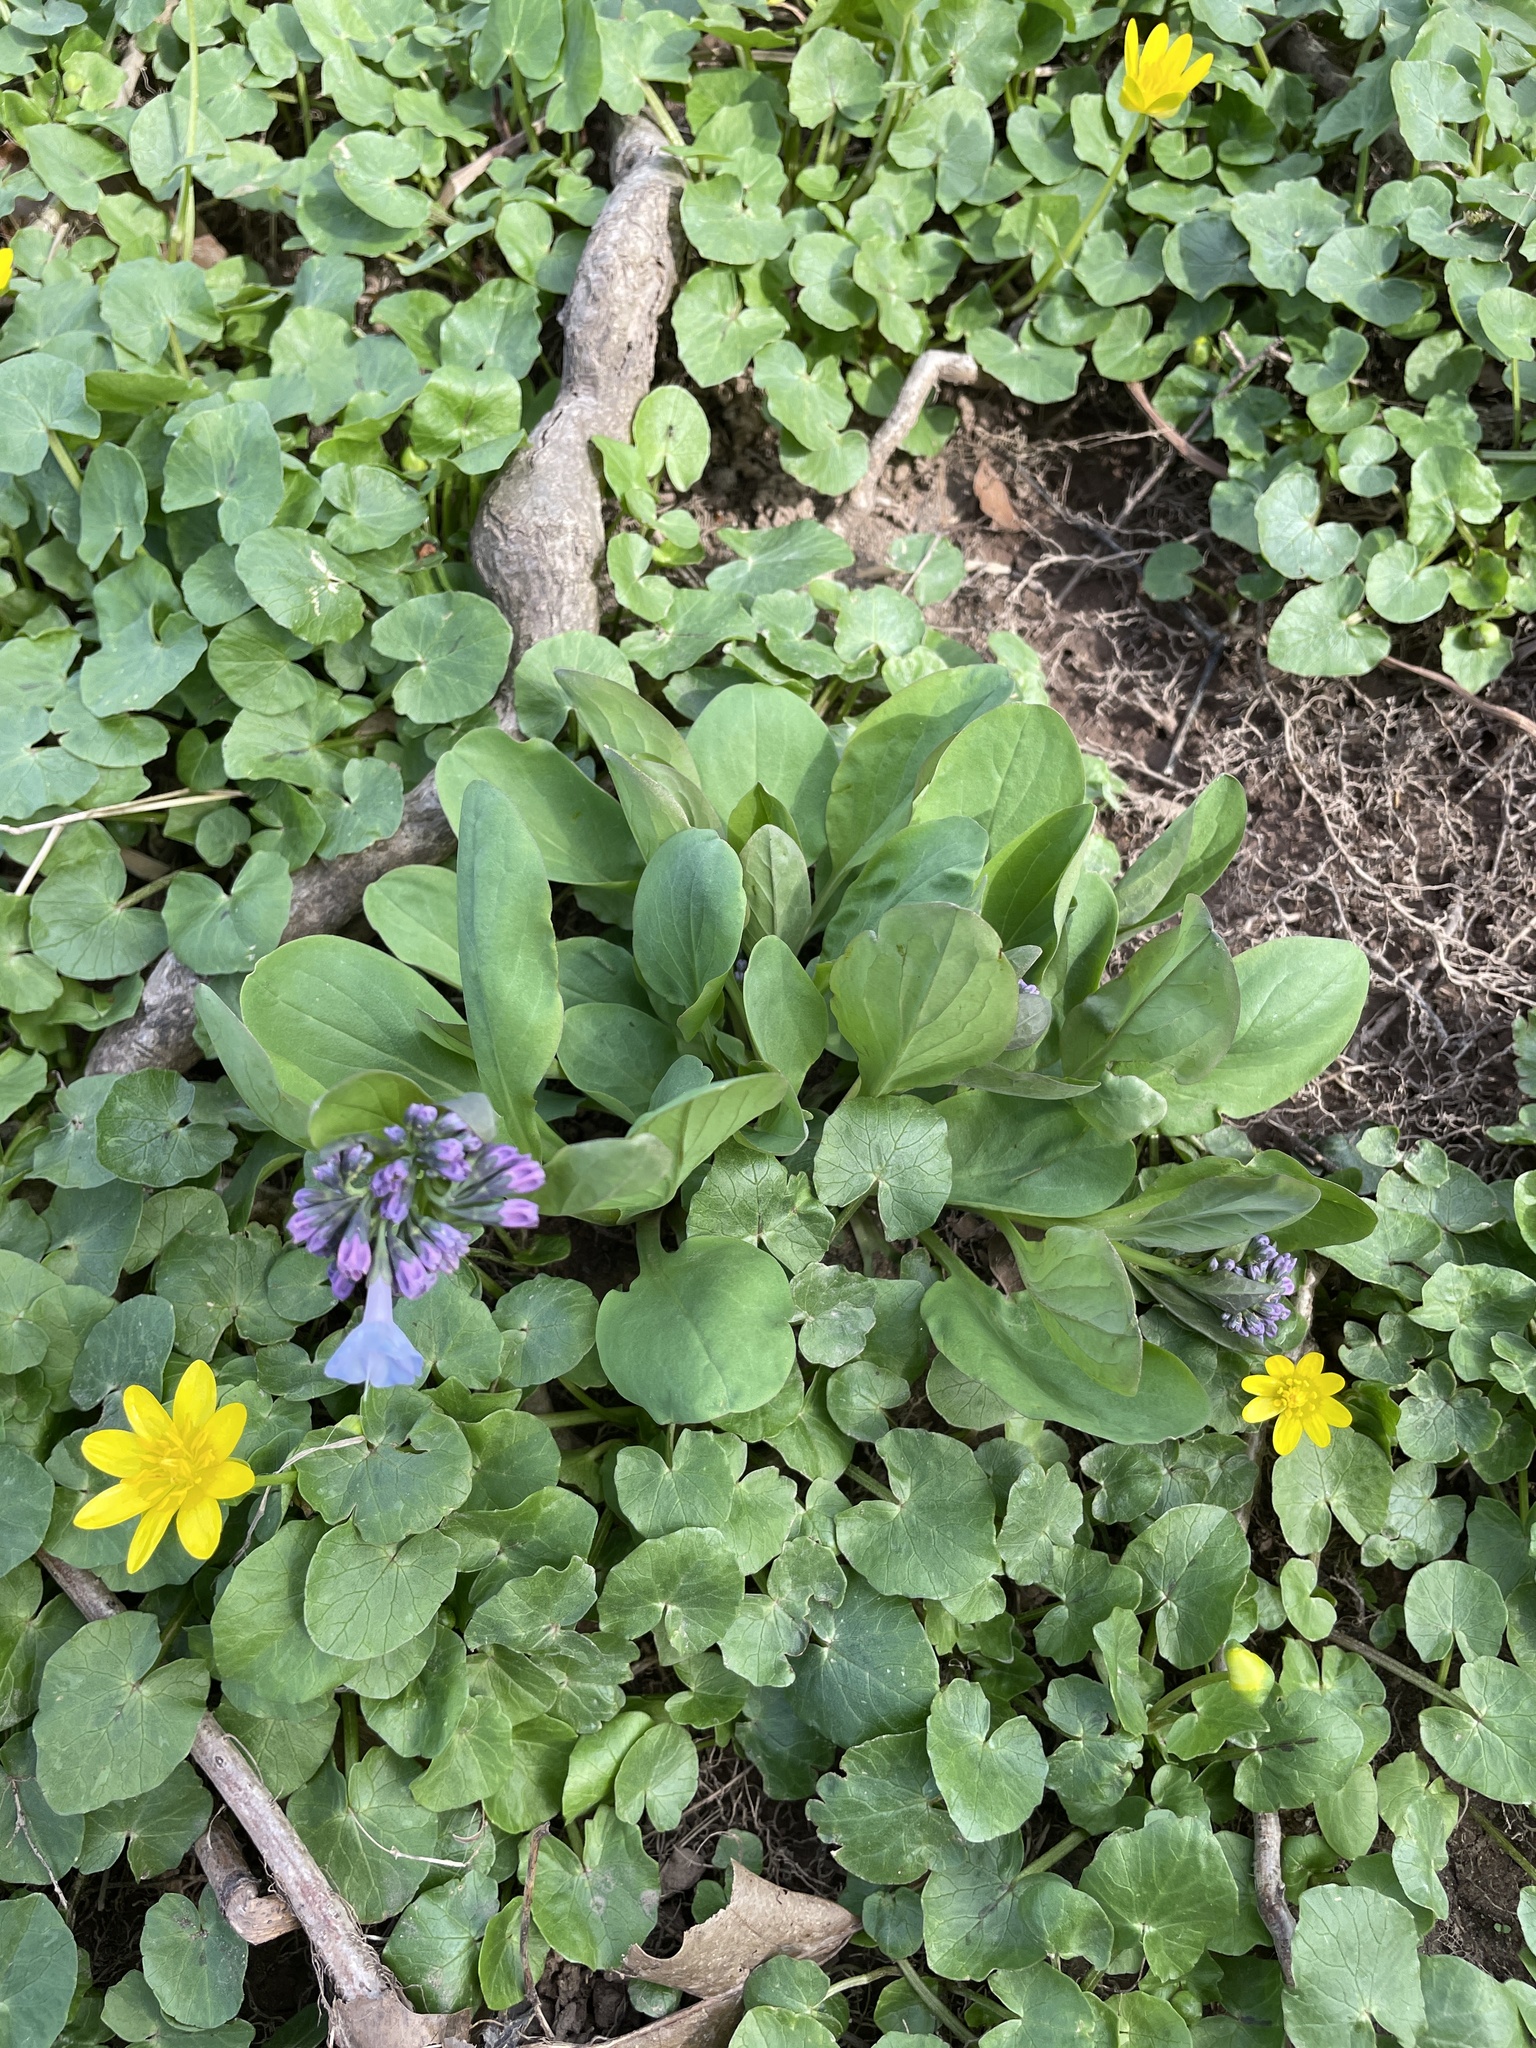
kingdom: Plantae
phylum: Tracheophyta
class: Magnoliopsida
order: Boraginales
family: Boraginaceae
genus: Mertensia
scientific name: Mertensia virginica
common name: Virginia bluebells
